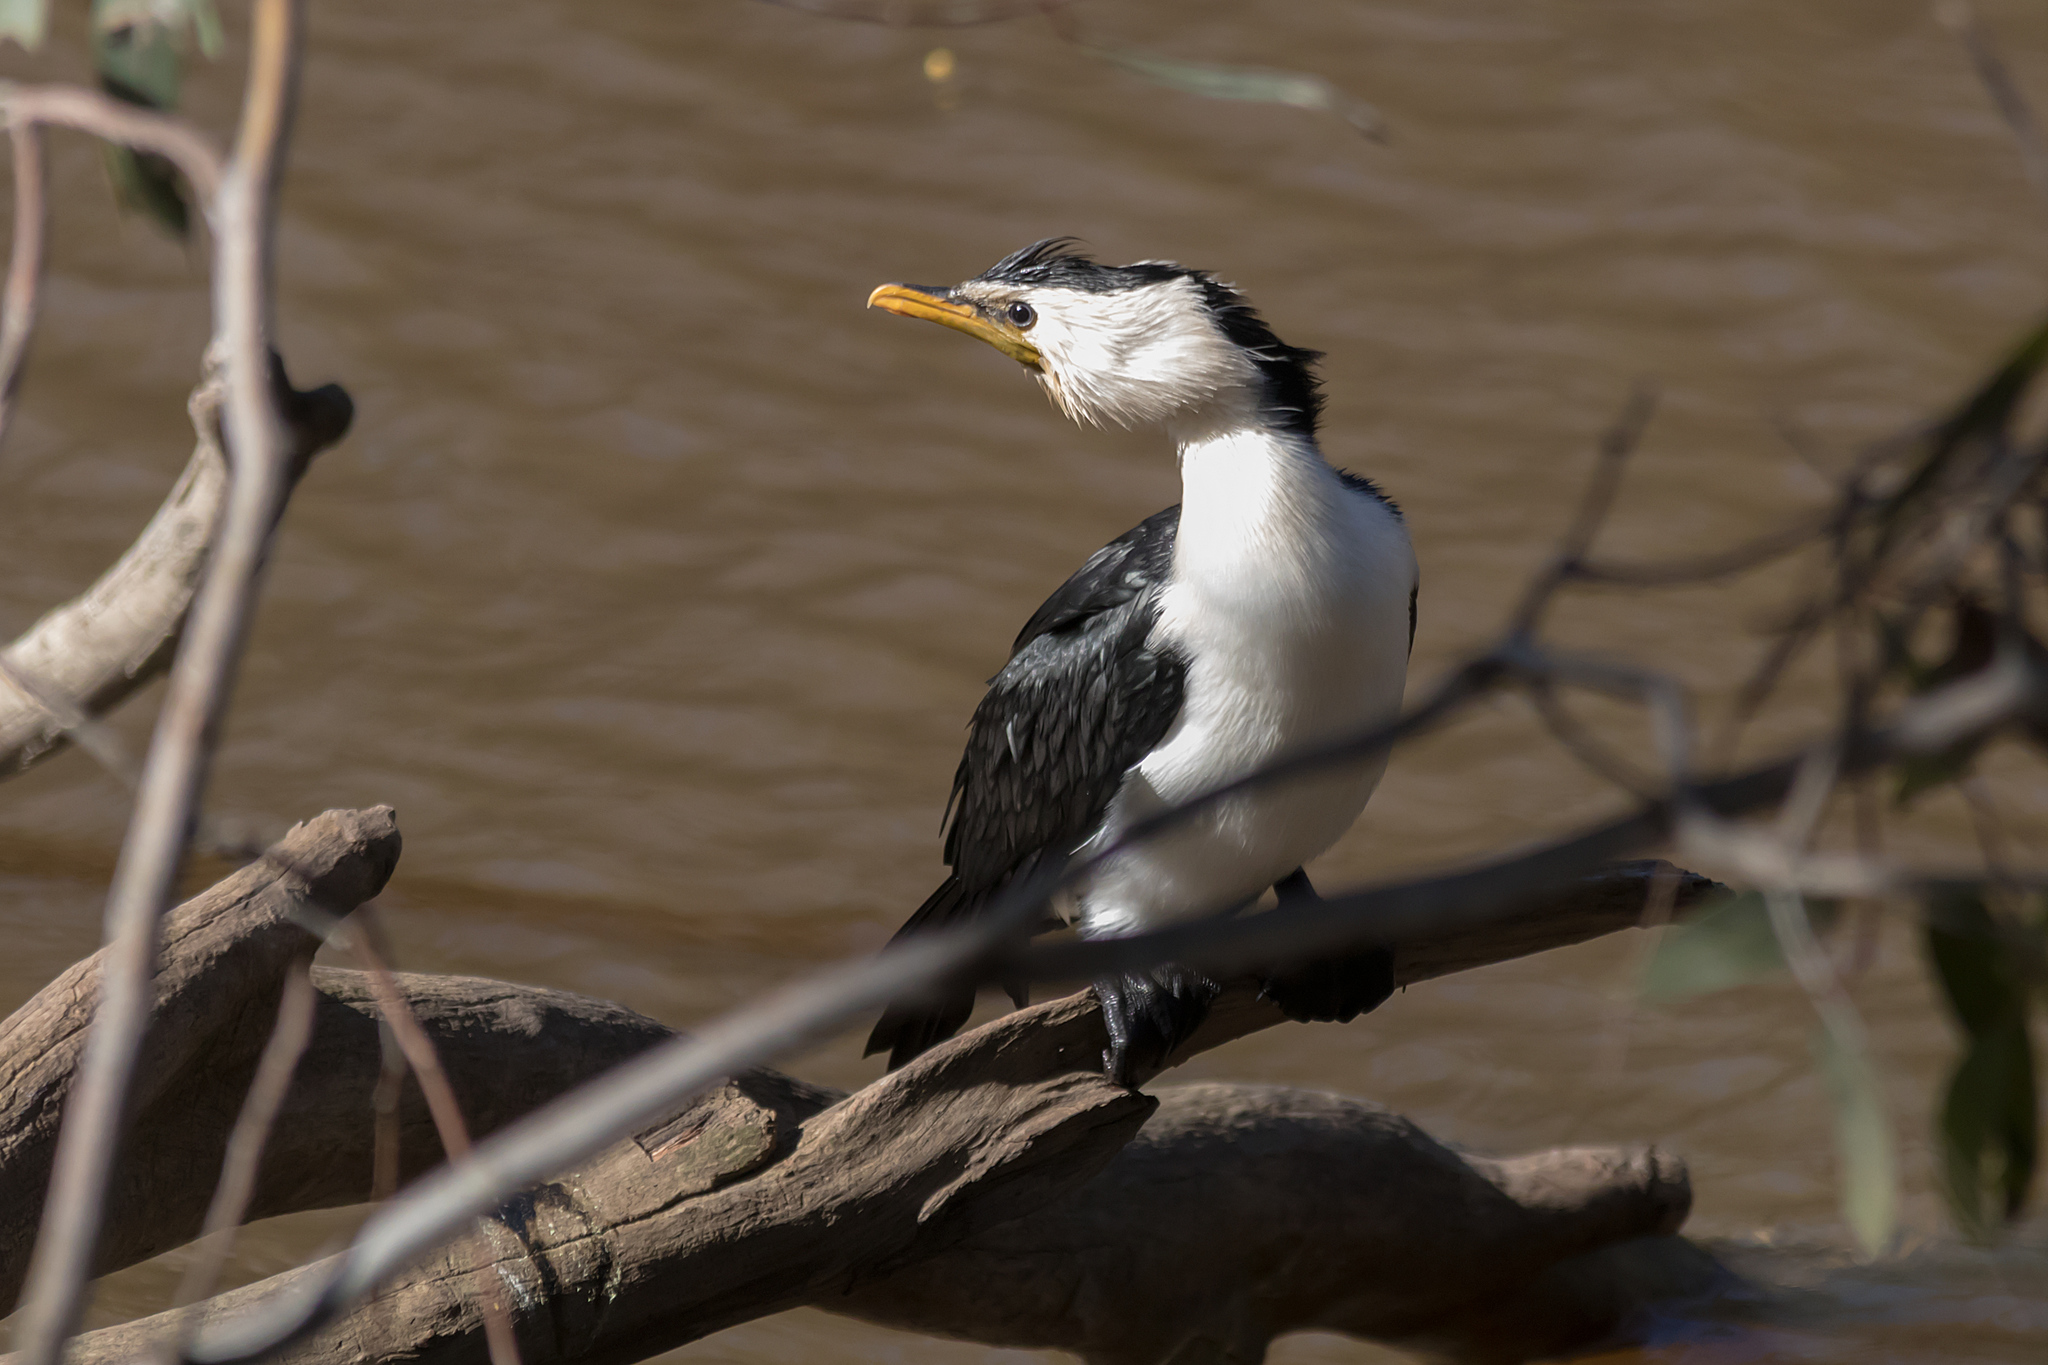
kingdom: Animalia
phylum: Chordata
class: Aves
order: Suliformes
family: Phalacrocoracidae
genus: Microcarbo
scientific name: Microcarbo melanoleucos
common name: Little pied cormorant
